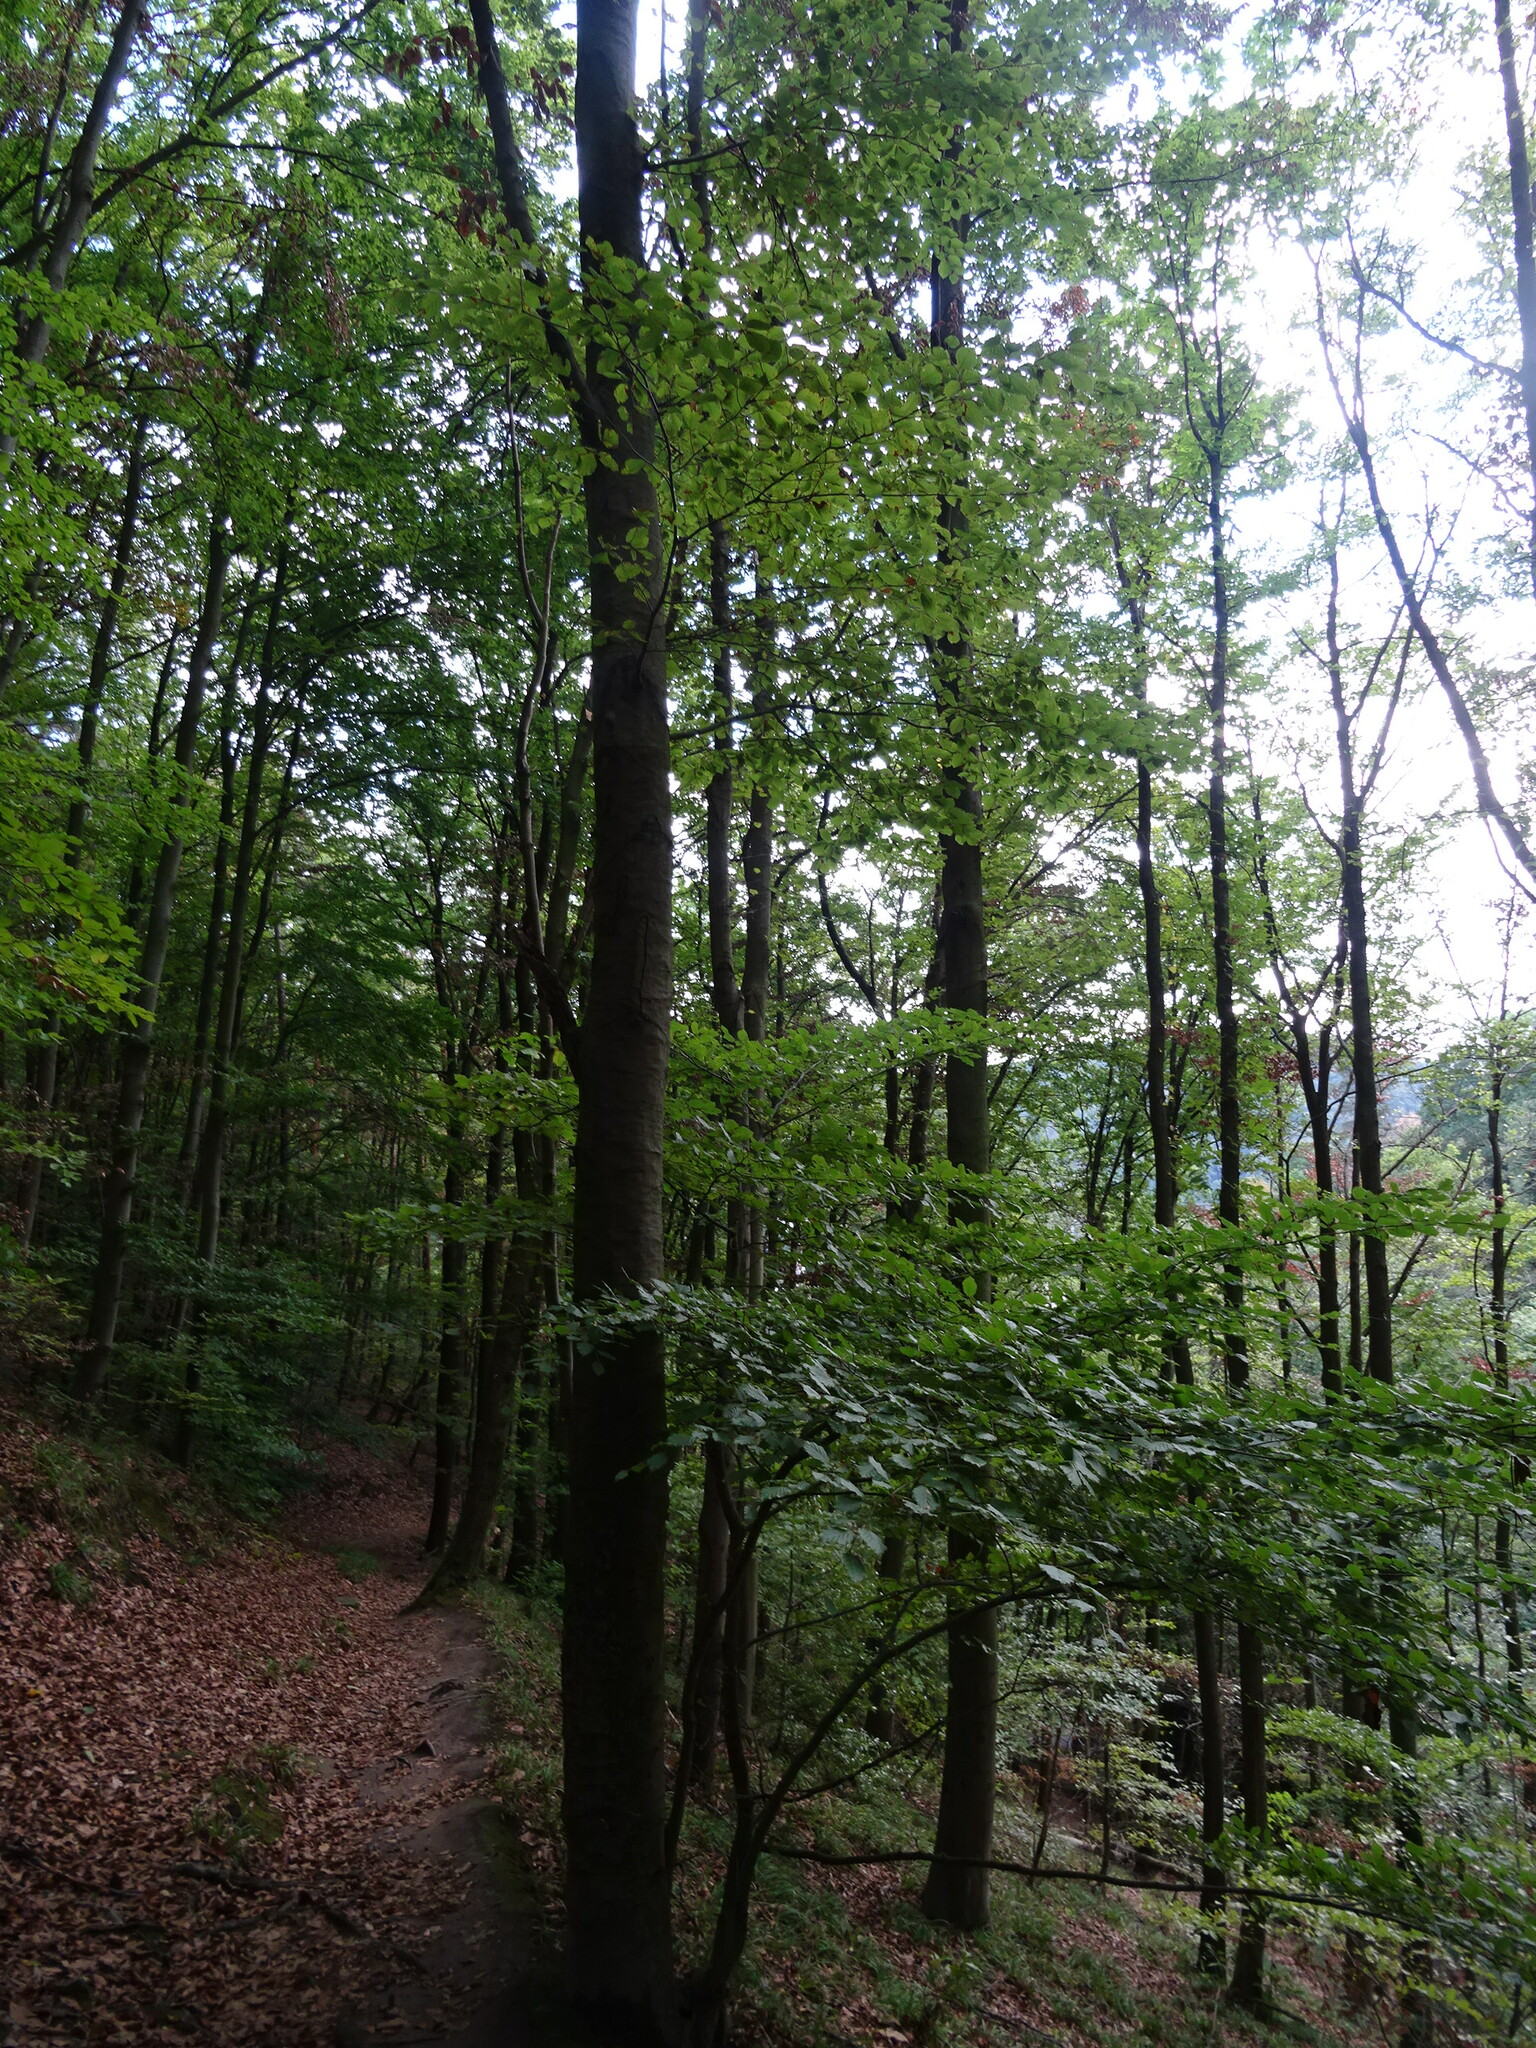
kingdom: Plantae
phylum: Tracheophyta
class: Magnoliopsida
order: Fagales
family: Fagaceae
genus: Fagus
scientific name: Fagus sylvatica
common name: Beech
